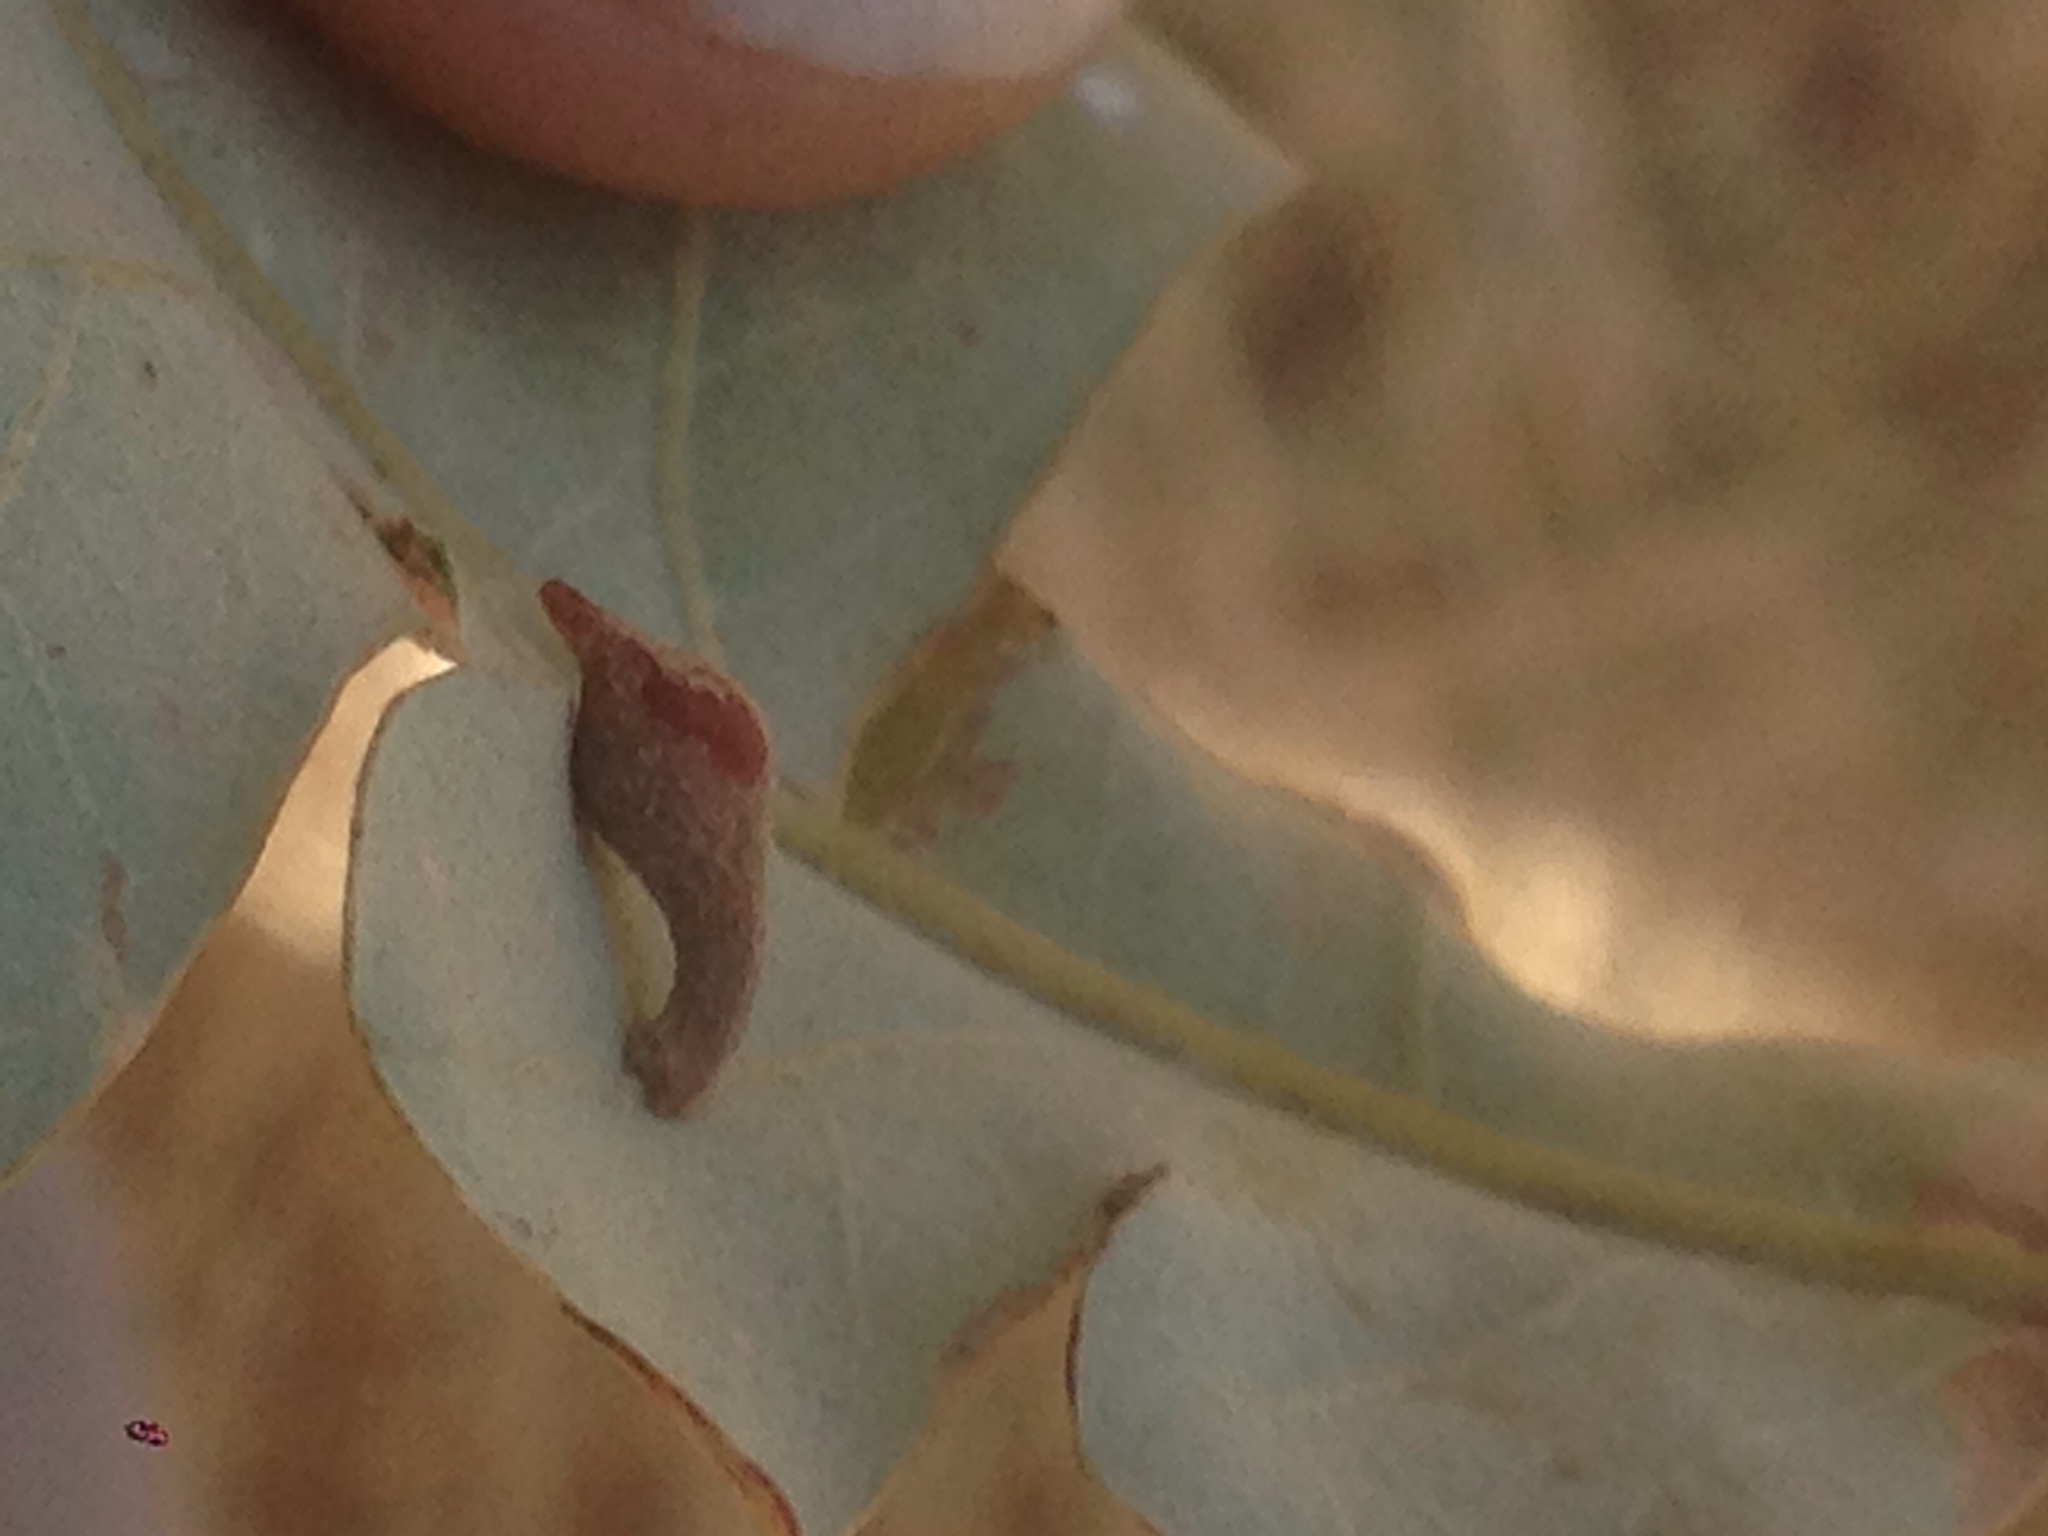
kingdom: Animalia
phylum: Arthropoda
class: Insecta
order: Hymenoptera
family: Cynipidae
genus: Atrusca
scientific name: Atrusca
